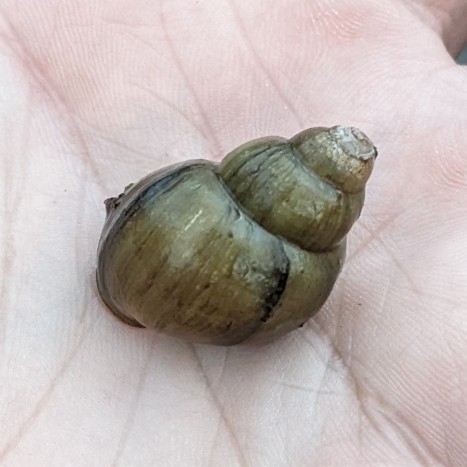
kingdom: Animalia
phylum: Mollusca
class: Gastropoda
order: Architaenioglossa
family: Viviparidae
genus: Cipangopaludina
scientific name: Cipangopaludina chinensis
